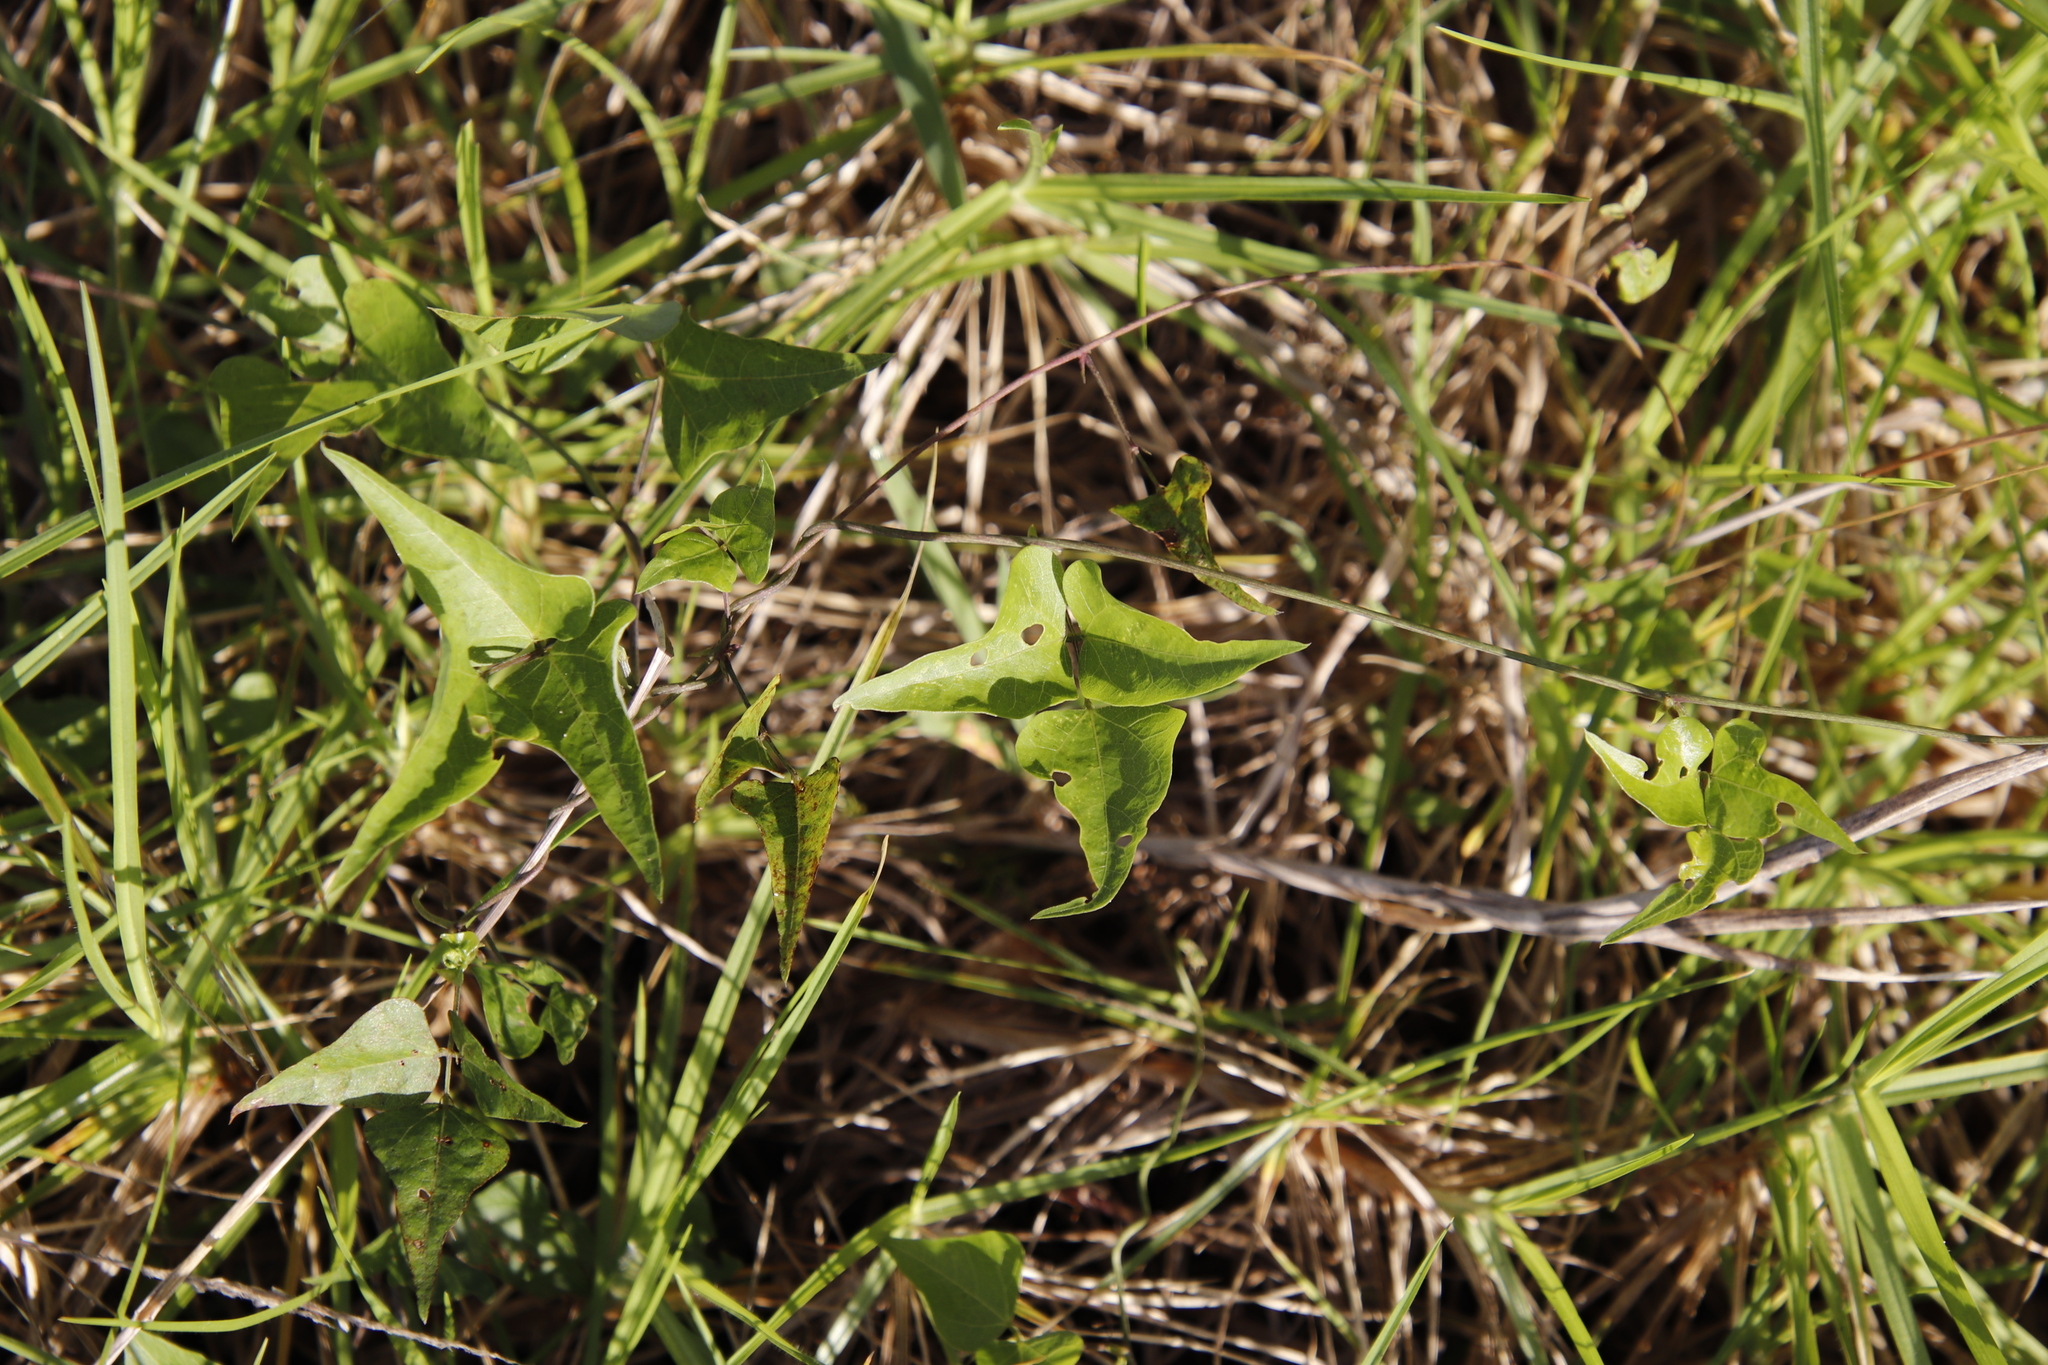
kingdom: Plantae
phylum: Tracheophyta
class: Magnoliopsida
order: Fabales
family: Fabaceae
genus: Dipogon
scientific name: Dipogon lignosus
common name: Okie bean
